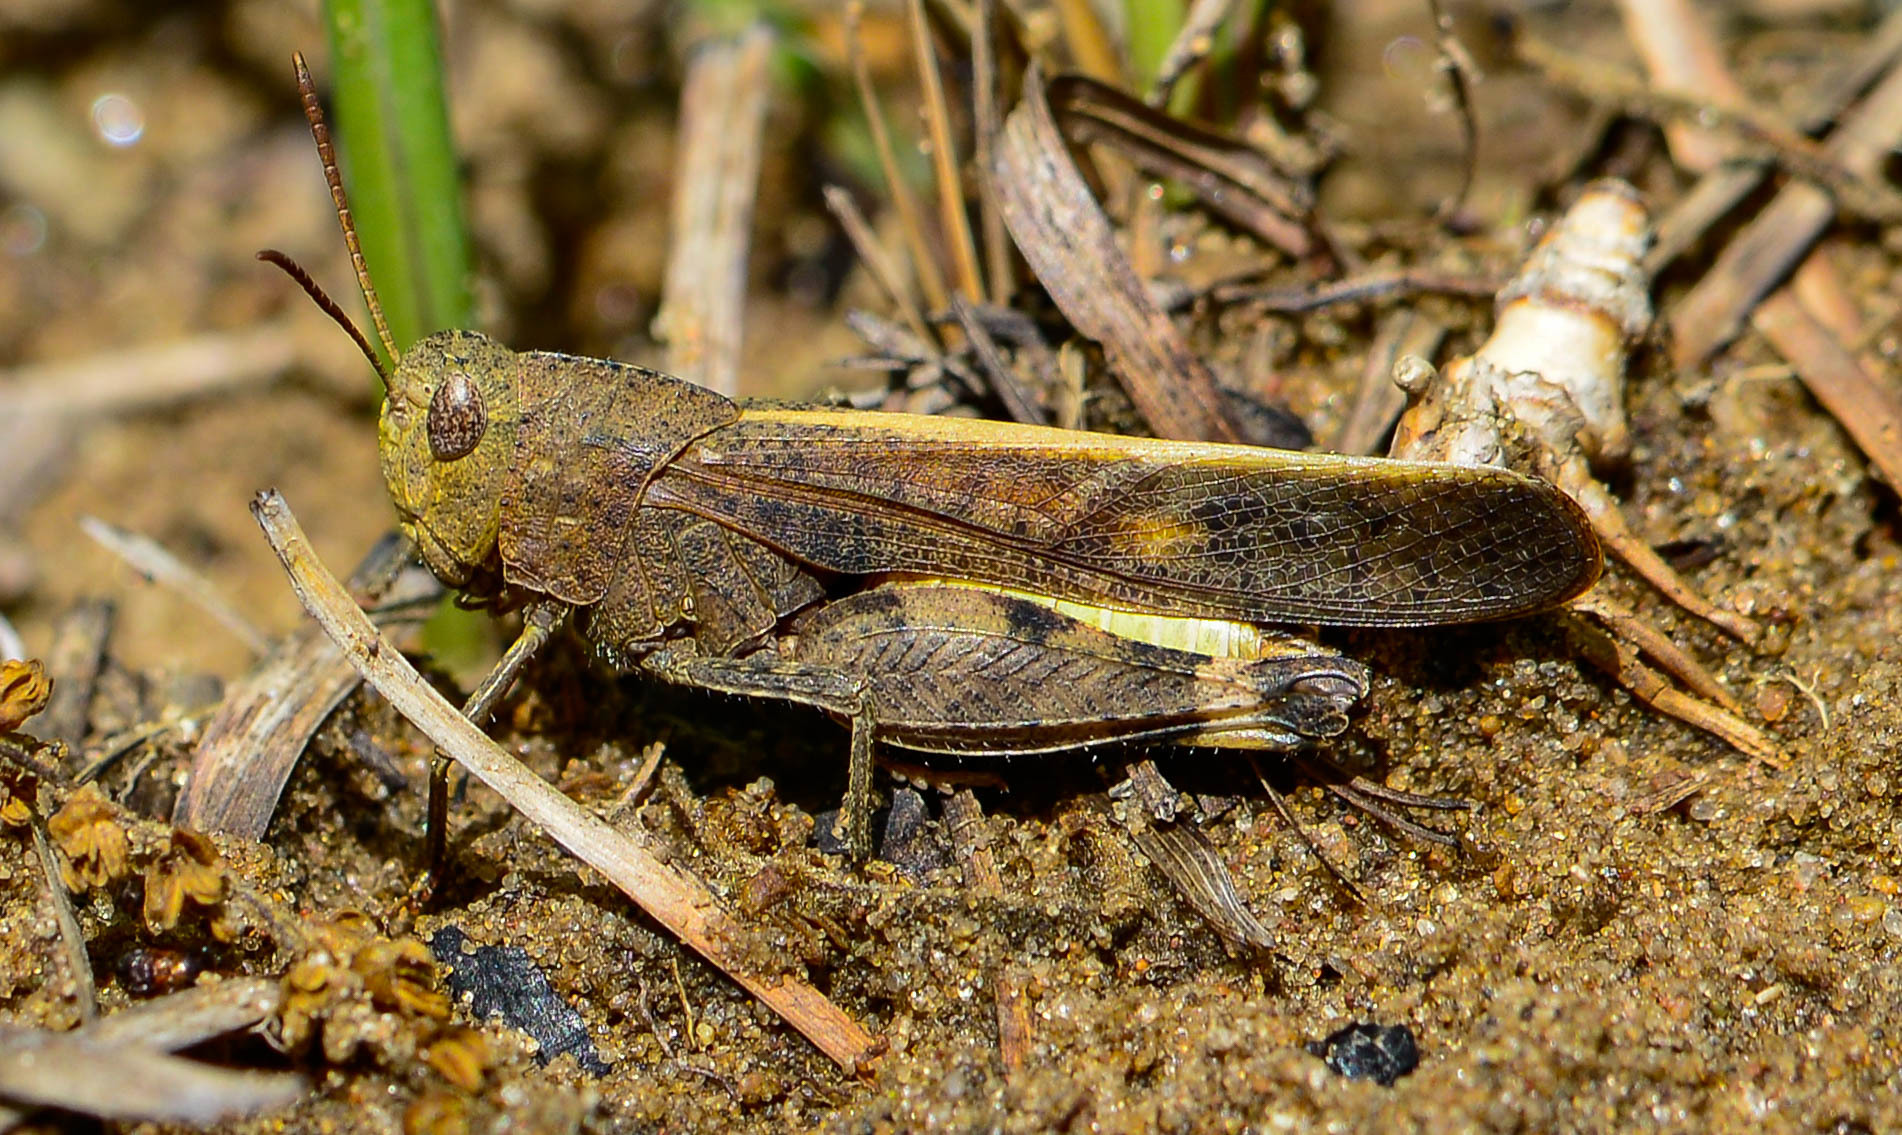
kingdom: Animalia
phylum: Arthropoda
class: Insecta
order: Orthoptera
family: Acrididae
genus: Arphia
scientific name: Arphia sulphurea
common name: Spring yellow-winged locust
